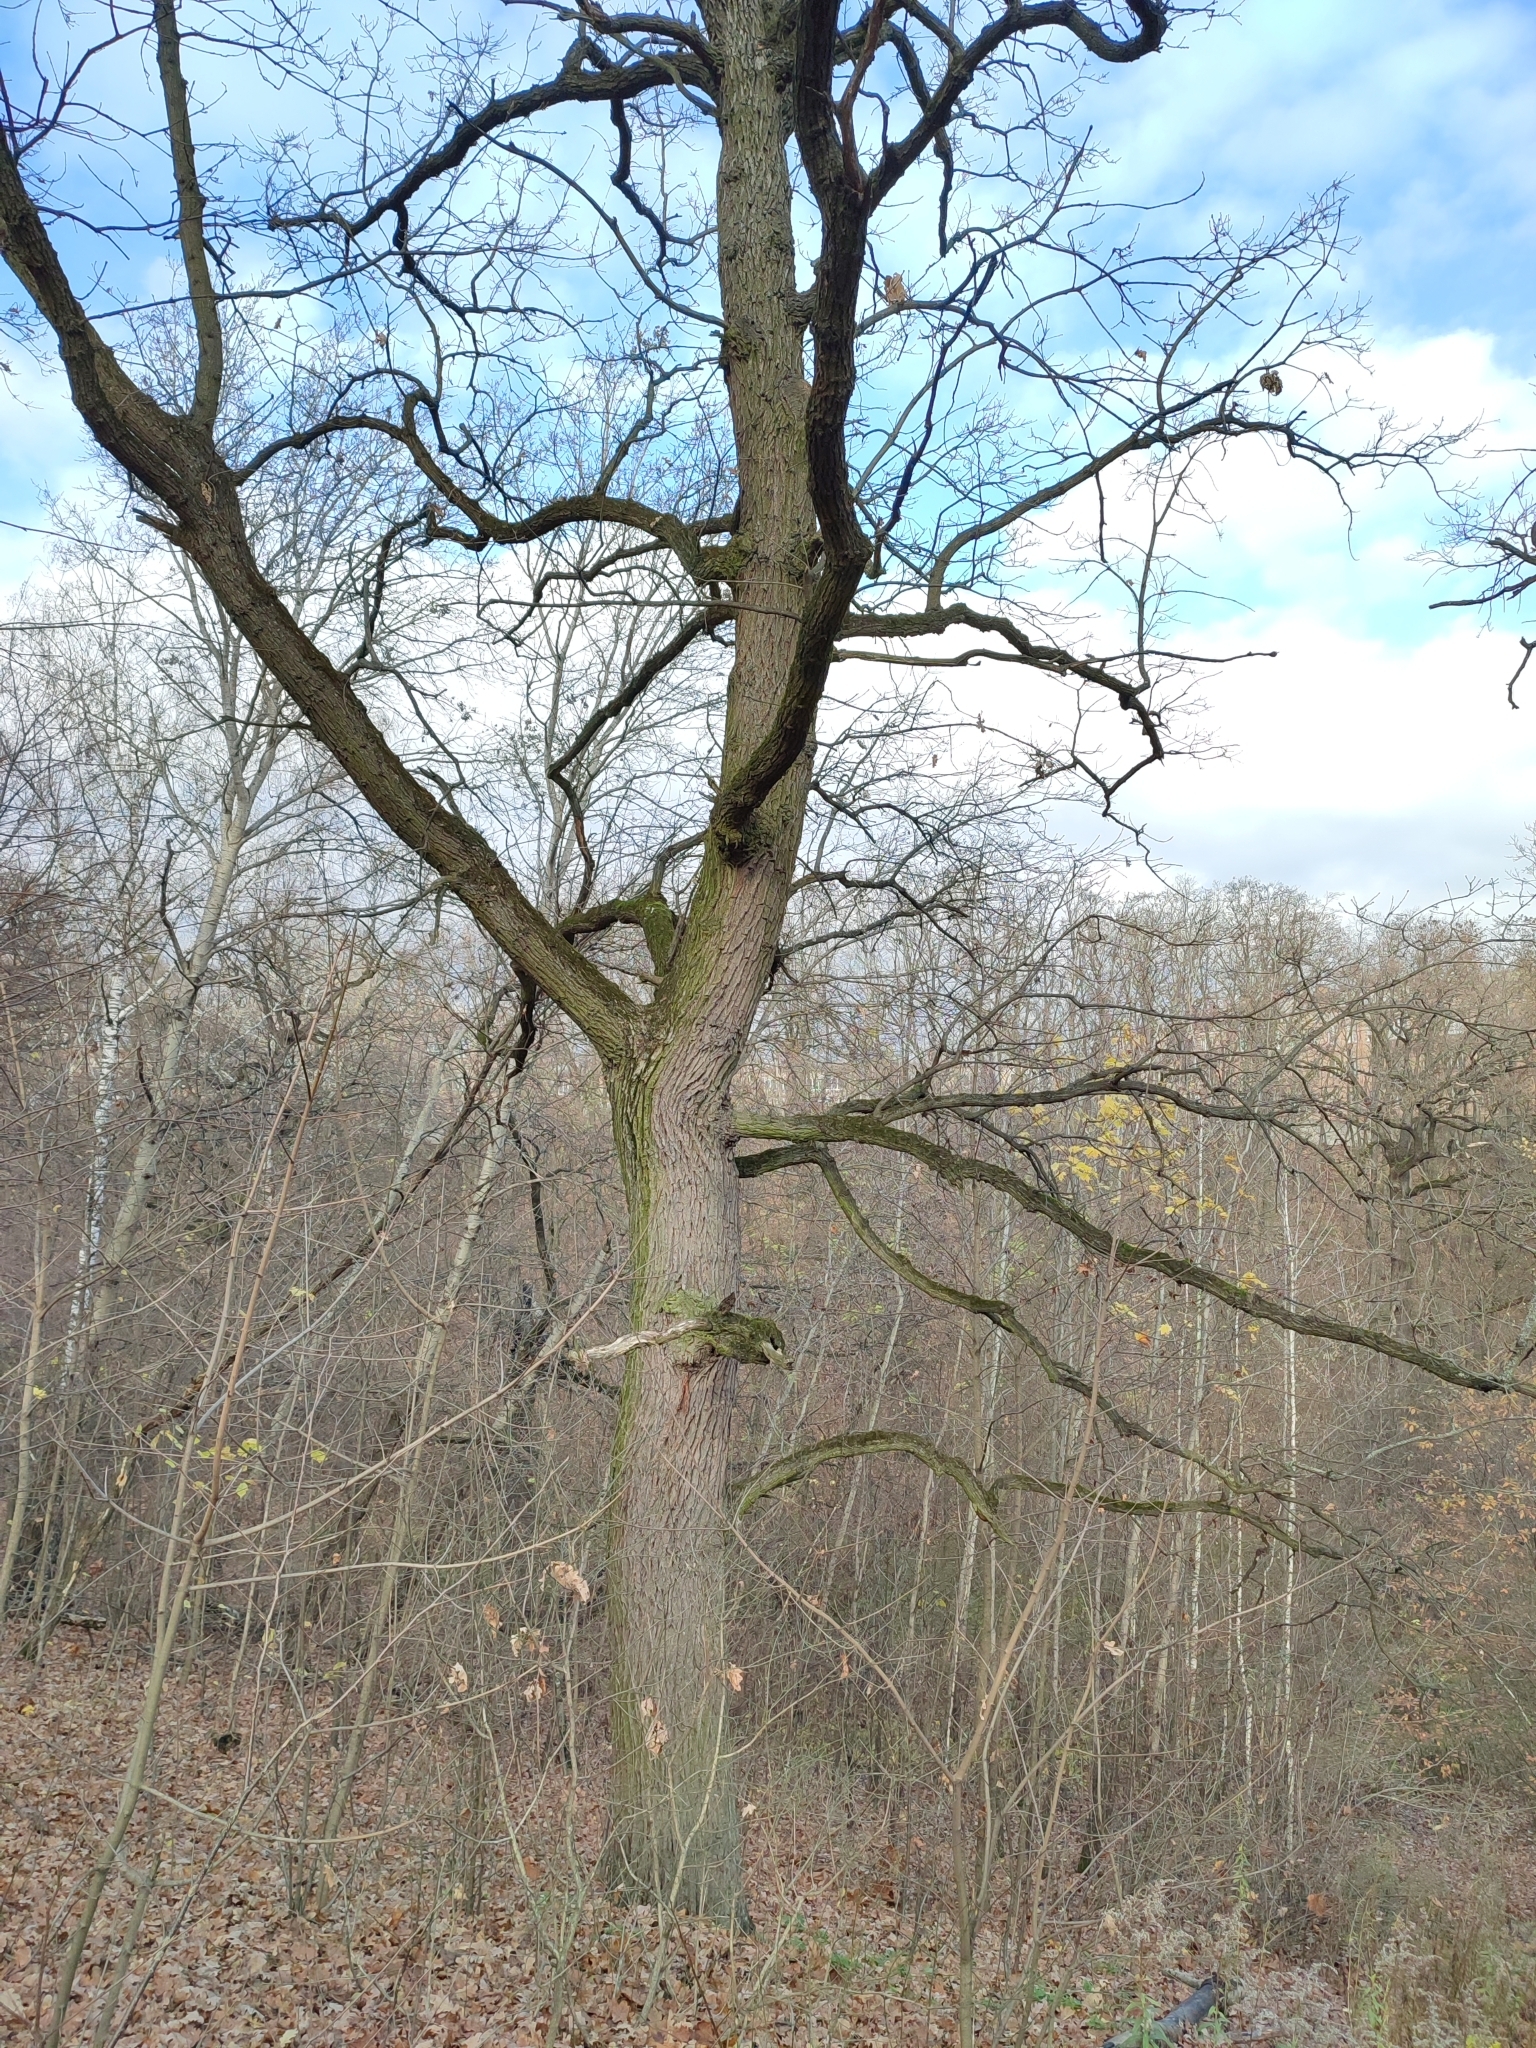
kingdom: Plantae
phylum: Tracheophyta
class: Magnoliopsida
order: Fagales
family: Fagaceae
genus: Quercus
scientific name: Quercus robur
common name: Pedunculate oak
